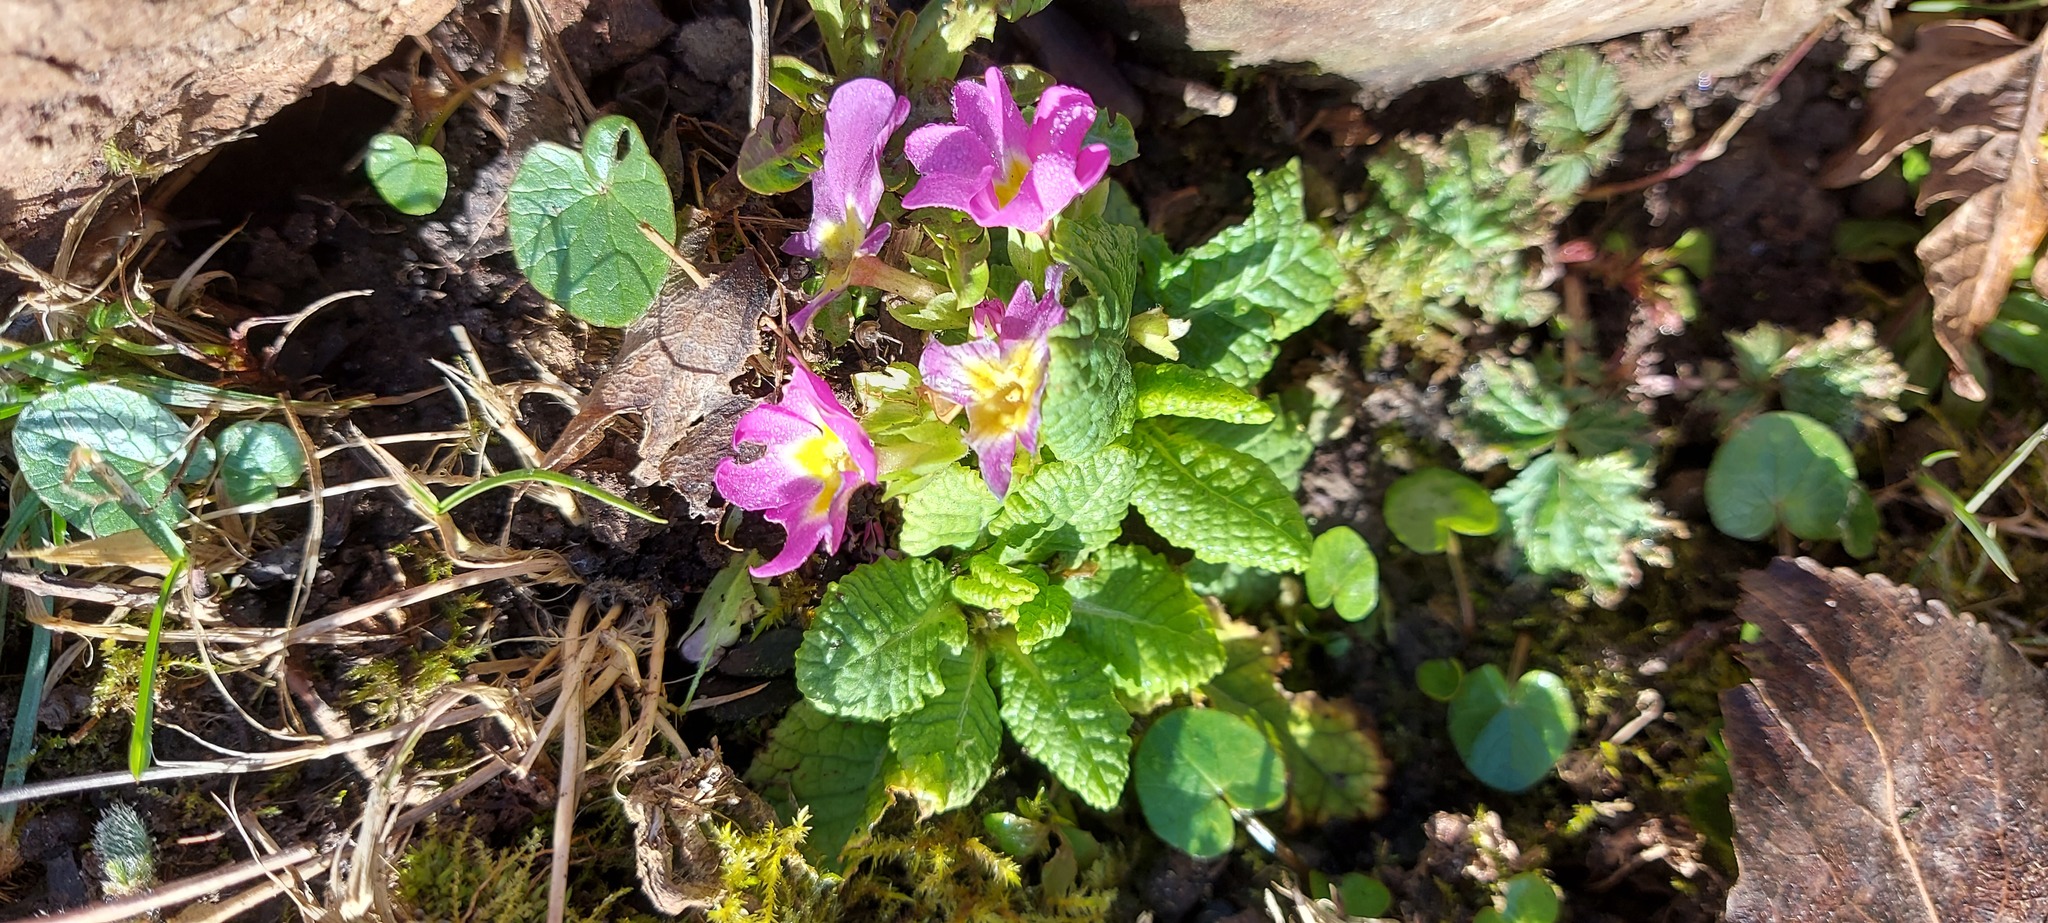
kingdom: Plantae
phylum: Tracheophyta
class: Magnoliopsida
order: Ericales
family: Primulaceae
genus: Primula
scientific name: Primula vulgaris
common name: Primrose
